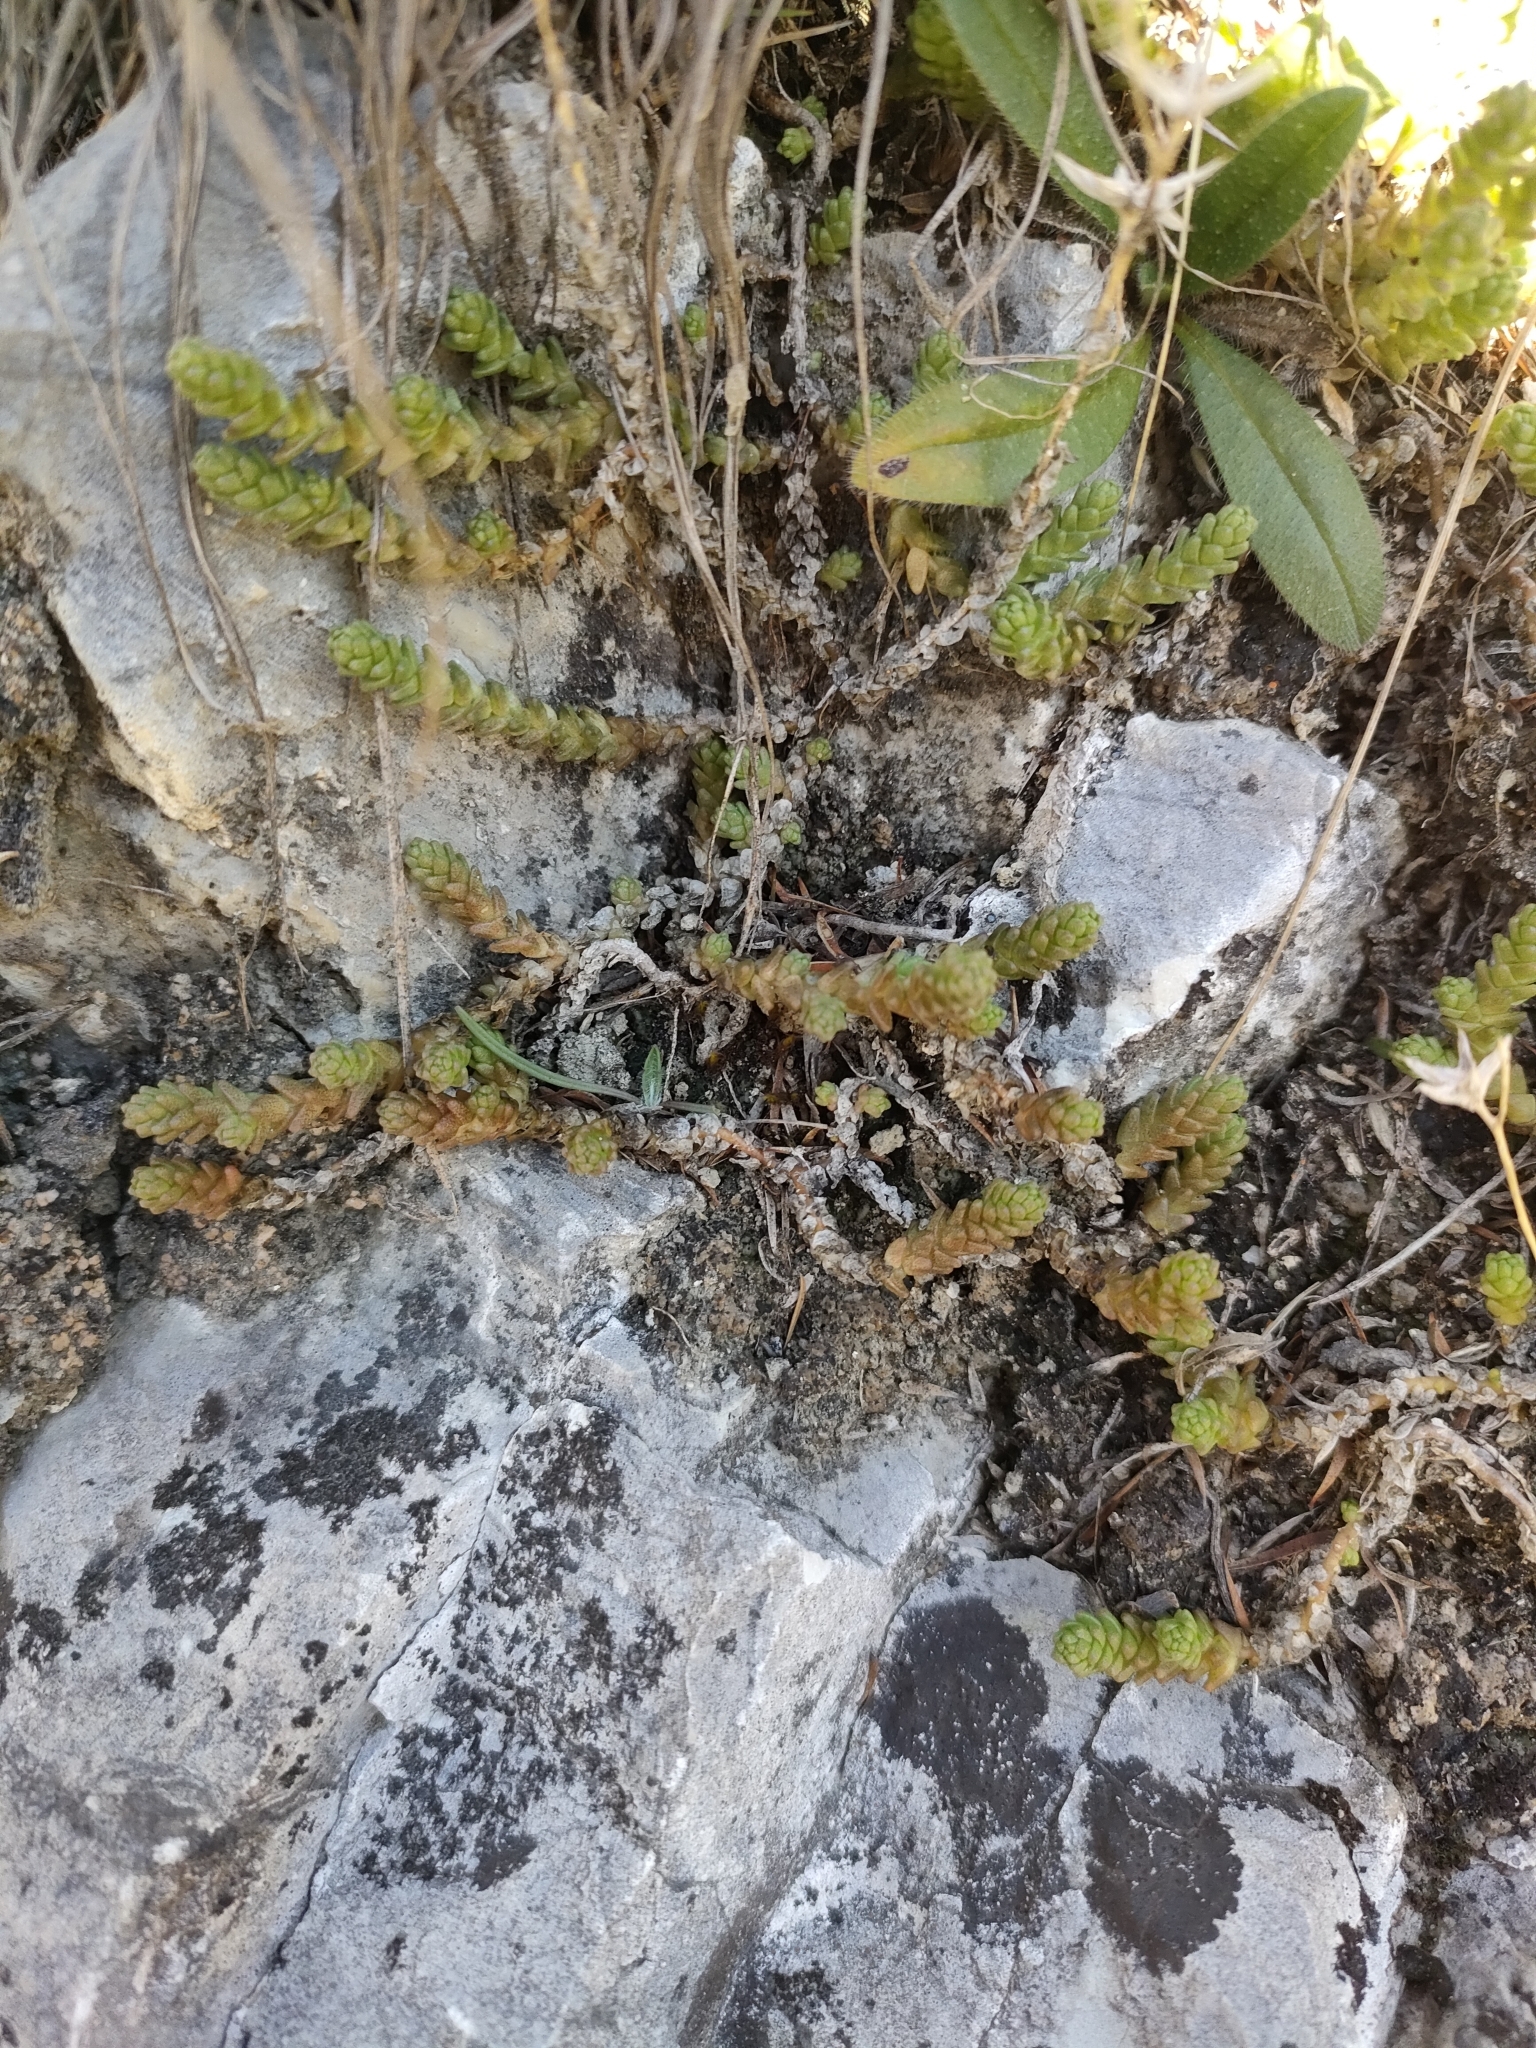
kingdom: Plantae
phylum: Tracheophyta
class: Magnoliopsida
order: Saxifragales
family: Crassulaceae
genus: Sedum
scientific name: Sedum acre
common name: Biting stonecrop
